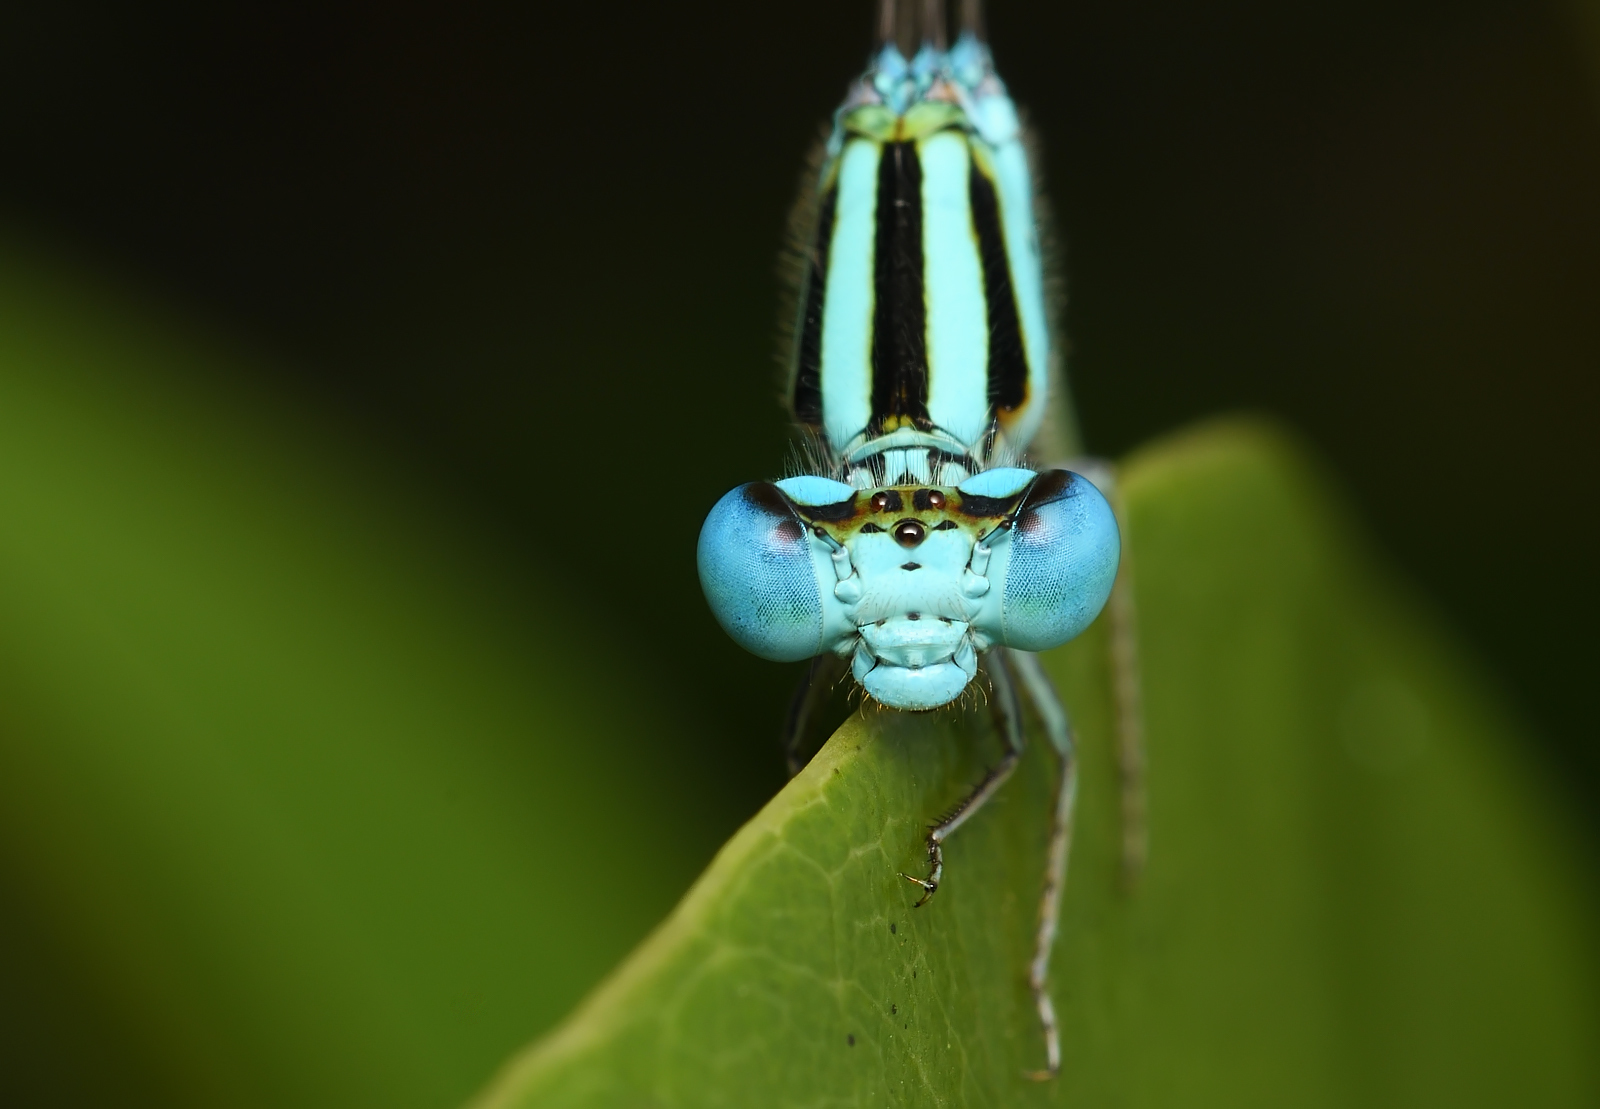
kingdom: Animalia
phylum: Arthropoda
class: Insecta
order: Odonata
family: Coenagrionidae
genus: Pseudagrion
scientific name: Pseudagrion microcephalum
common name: Blue riverdamsel
